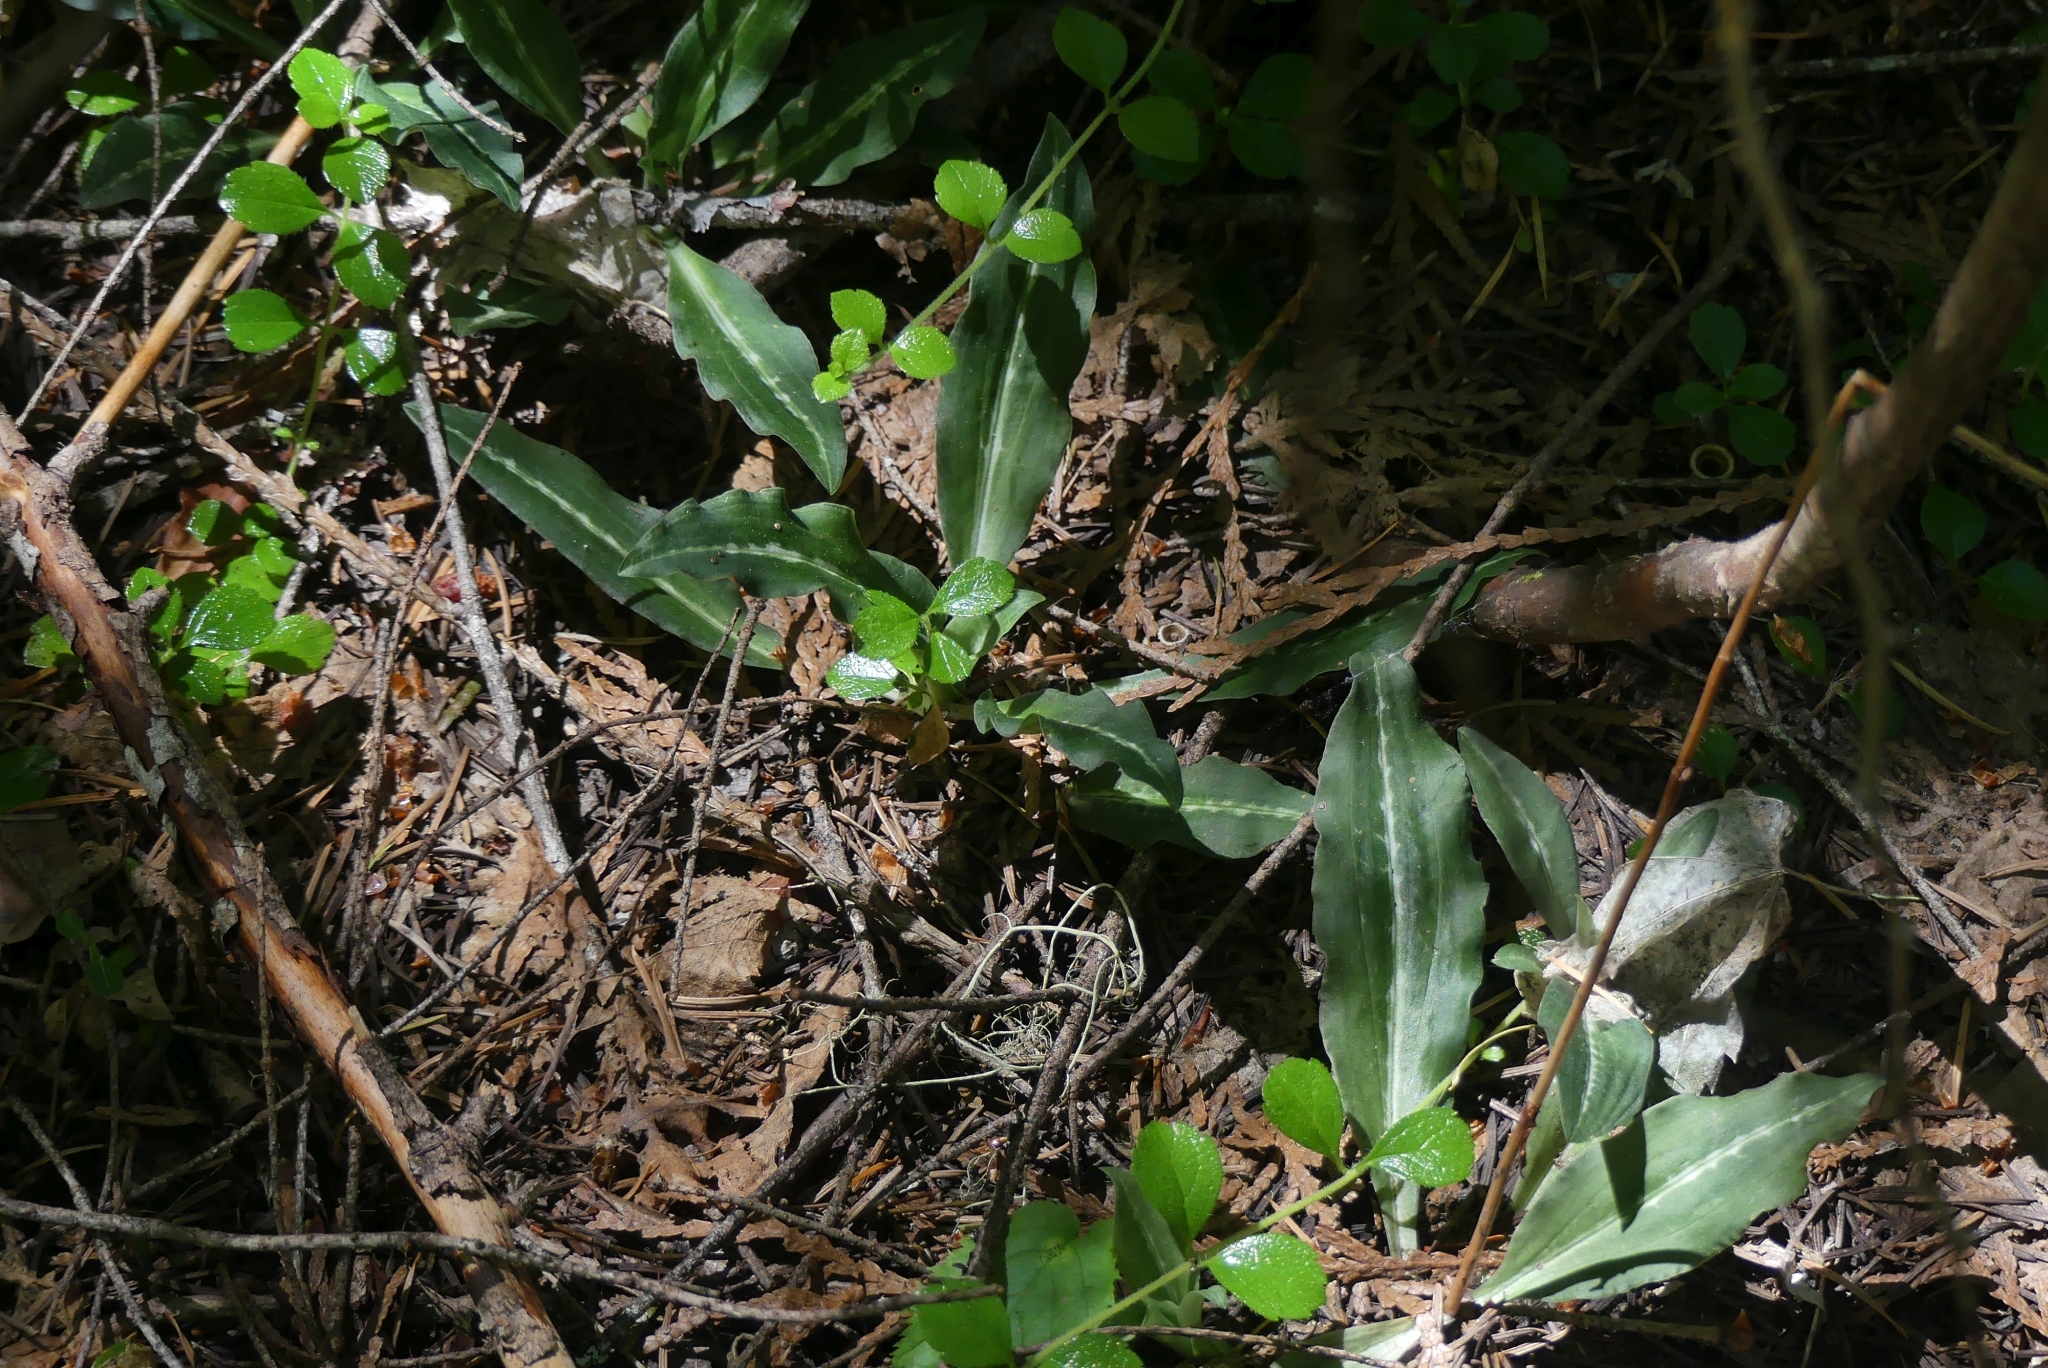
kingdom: Plantae
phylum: Tracheophyta
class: Liliopsida
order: Asparagales
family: Orchidaceae
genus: Goodyera
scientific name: Goodyera oblongifolia
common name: Giant rattlesnake-plantain
